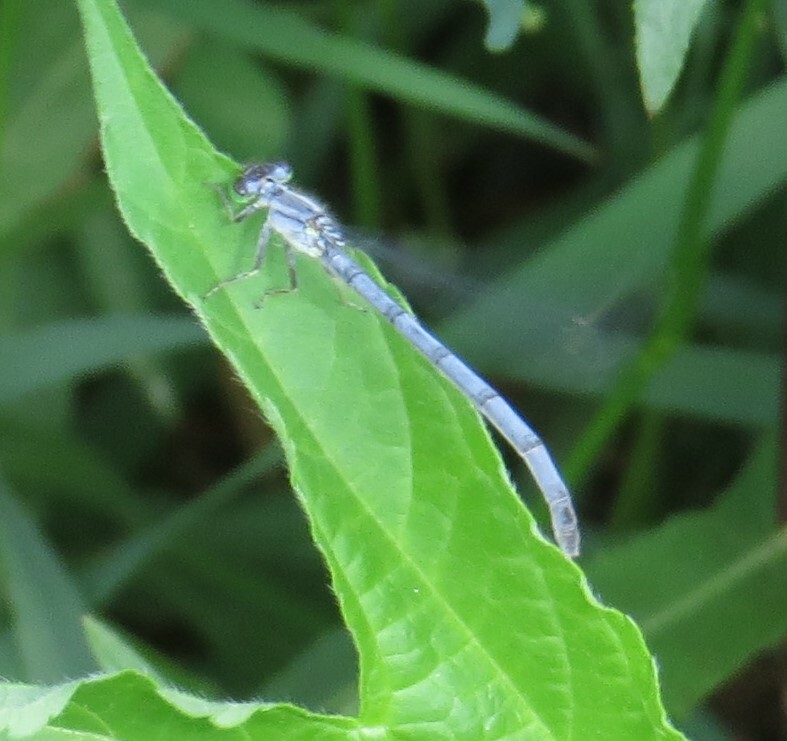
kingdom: Animalia
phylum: Arthropoda
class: Insecta
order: Odonata
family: Coenagrionidae
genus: Ischnura
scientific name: Ischnura verticalis
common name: Eastern forktail
